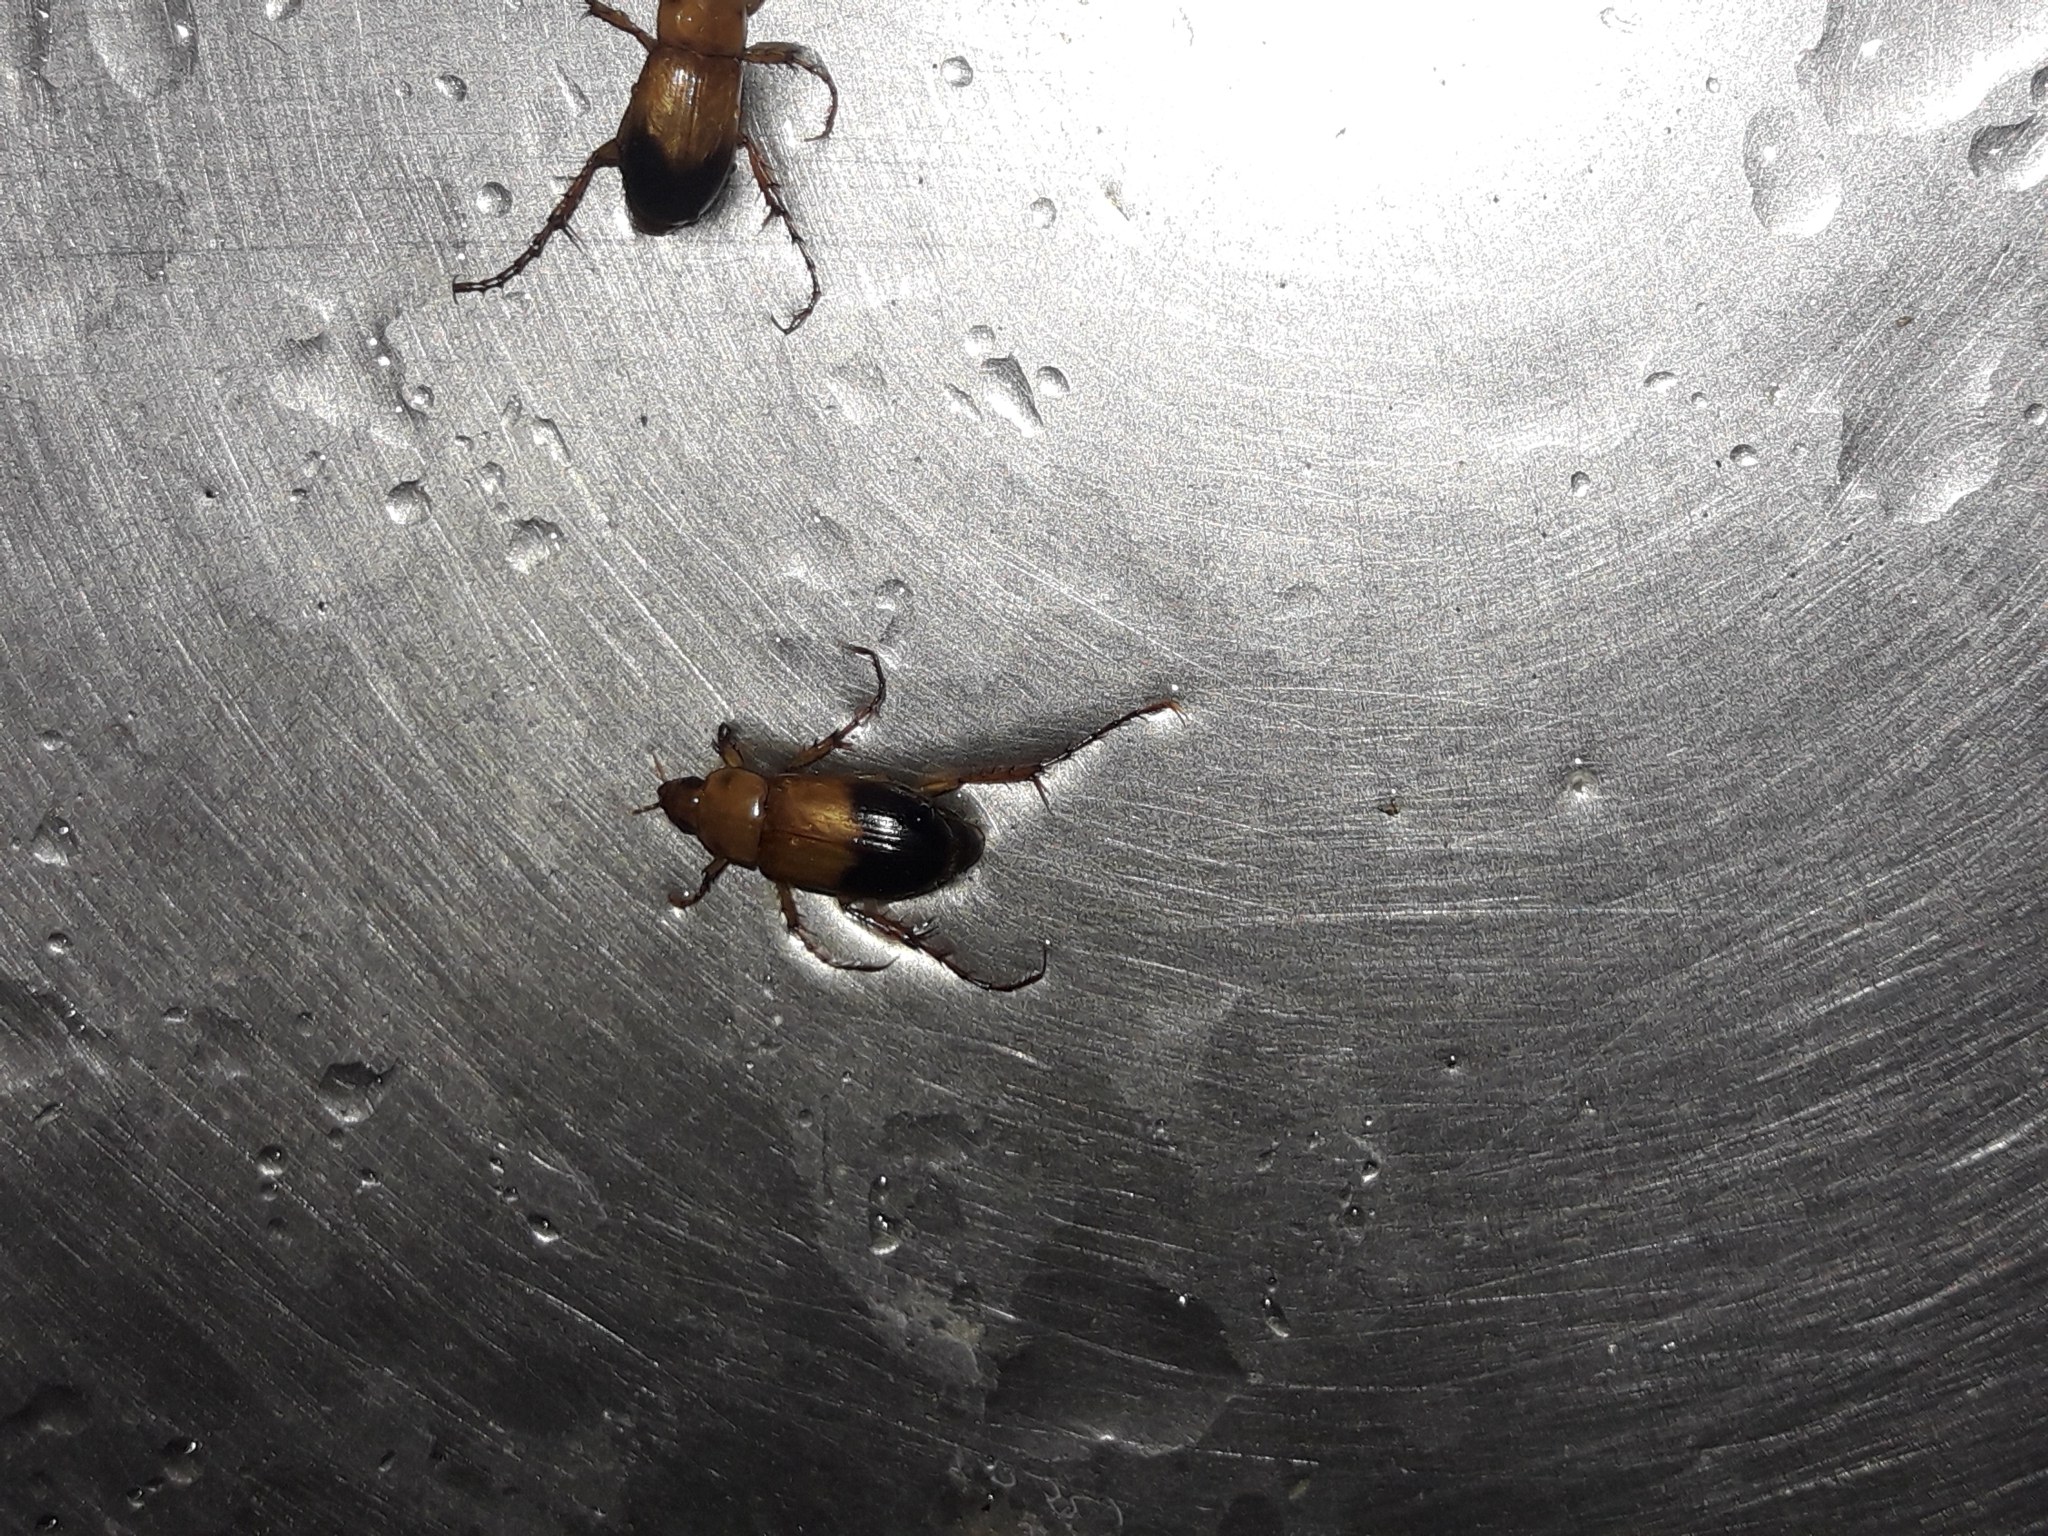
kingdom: Animalia
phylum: Arthropoda
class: Insecta
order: Coleoptera
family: Scarabaeidae
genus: Phyllotocus
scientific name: Phyllotocus macleayi
